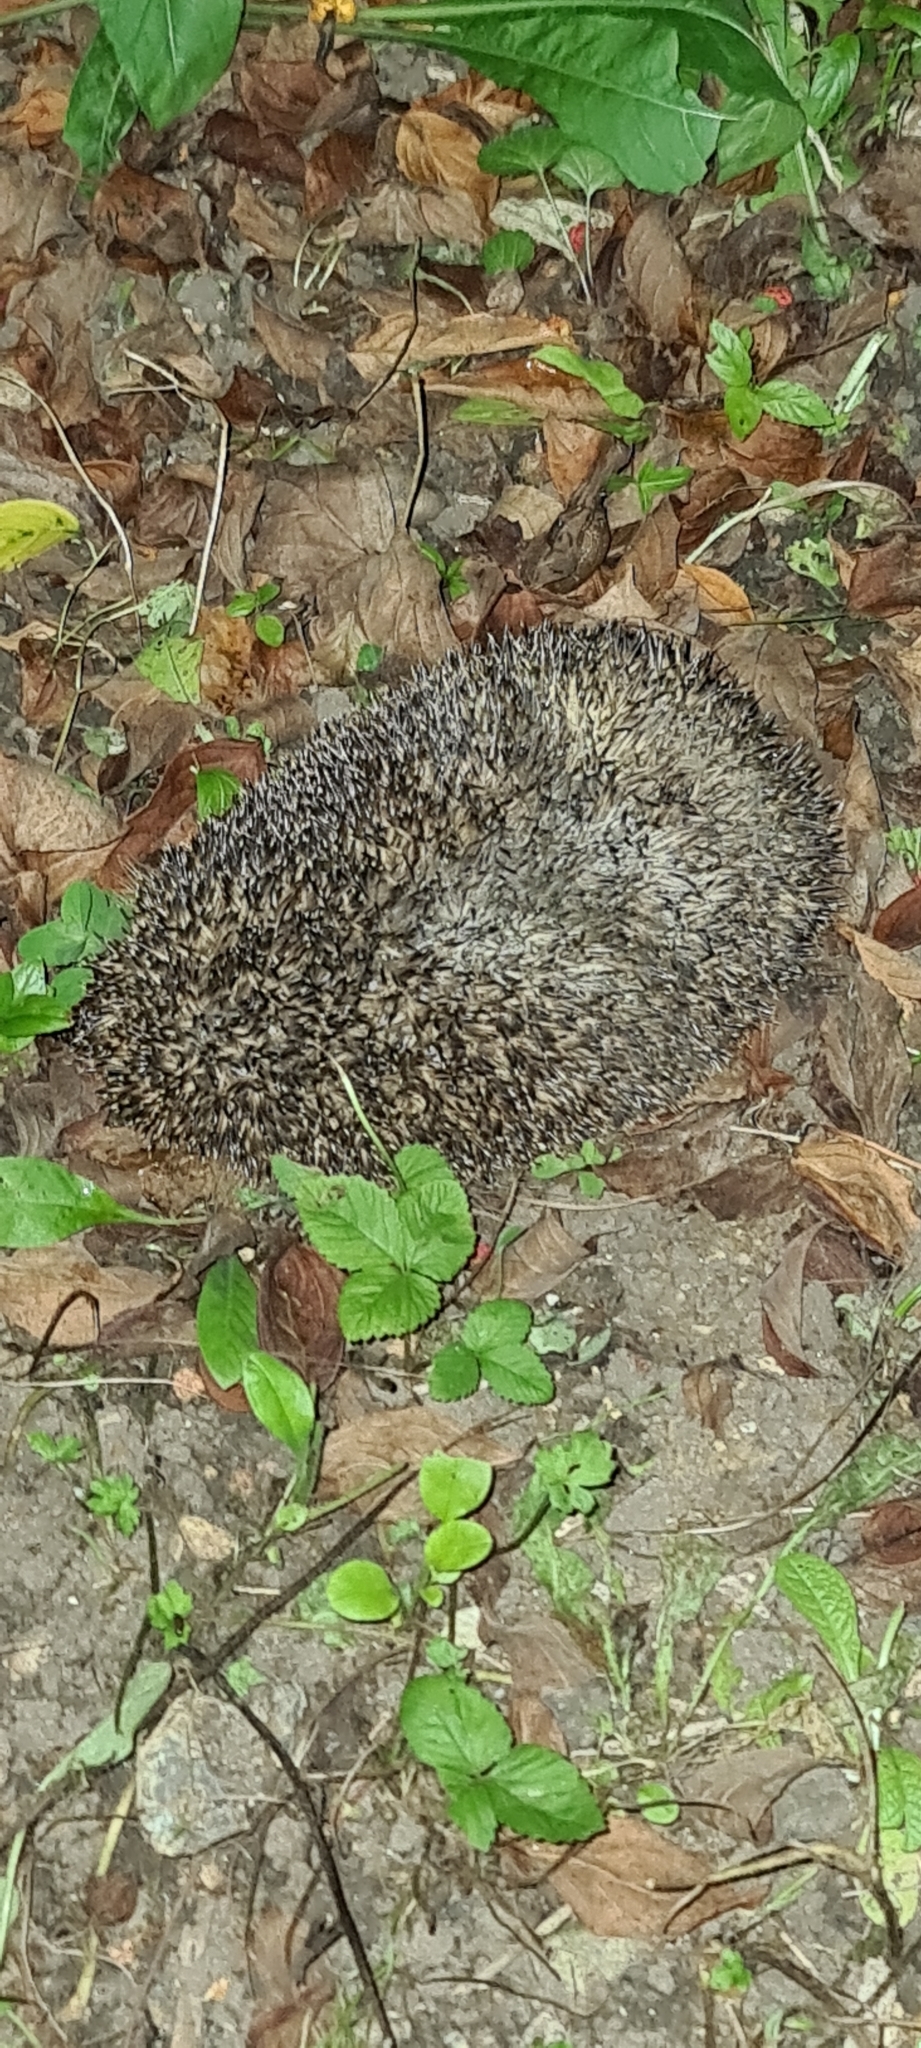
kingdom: Animalia
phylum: Chordata
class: Mammalia
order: Erinaceomorpha
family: Erinaceidae
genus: Erinaceus
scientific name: Erinaceus europaeus
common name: West european hedgehog
